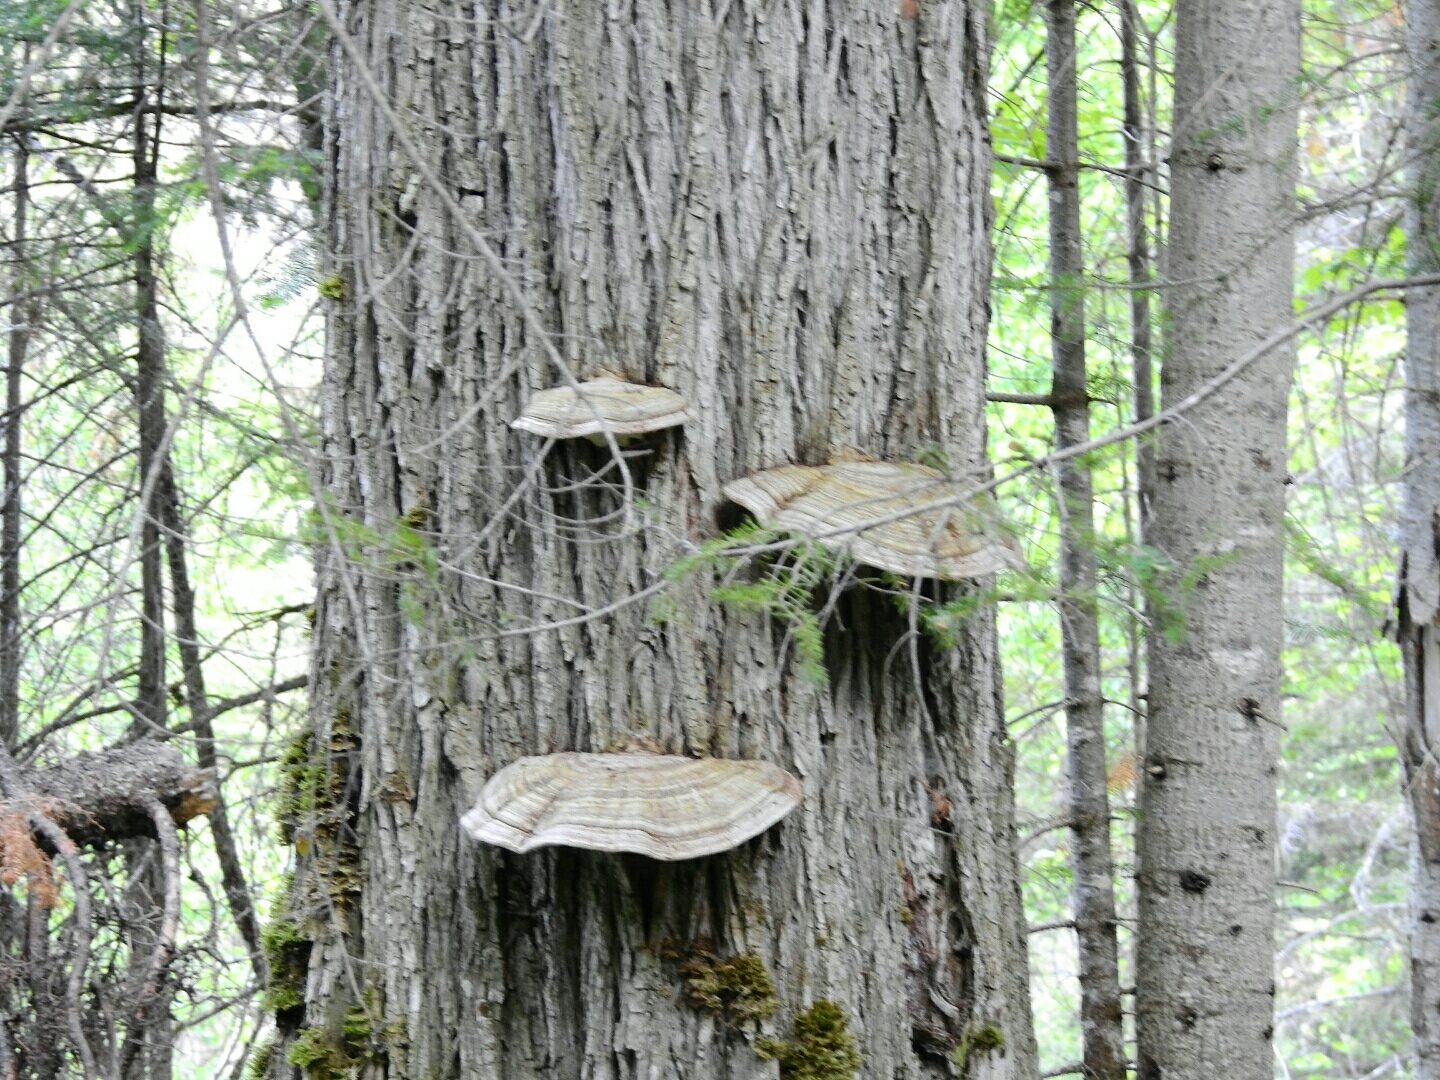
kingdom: Fungi
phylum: Basidiomycota
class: Agaricomycetes
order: Polyporales
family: Polyporaceae
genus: Ganoderma
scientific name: Ganoderma applanatum
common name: Artist's bracket
